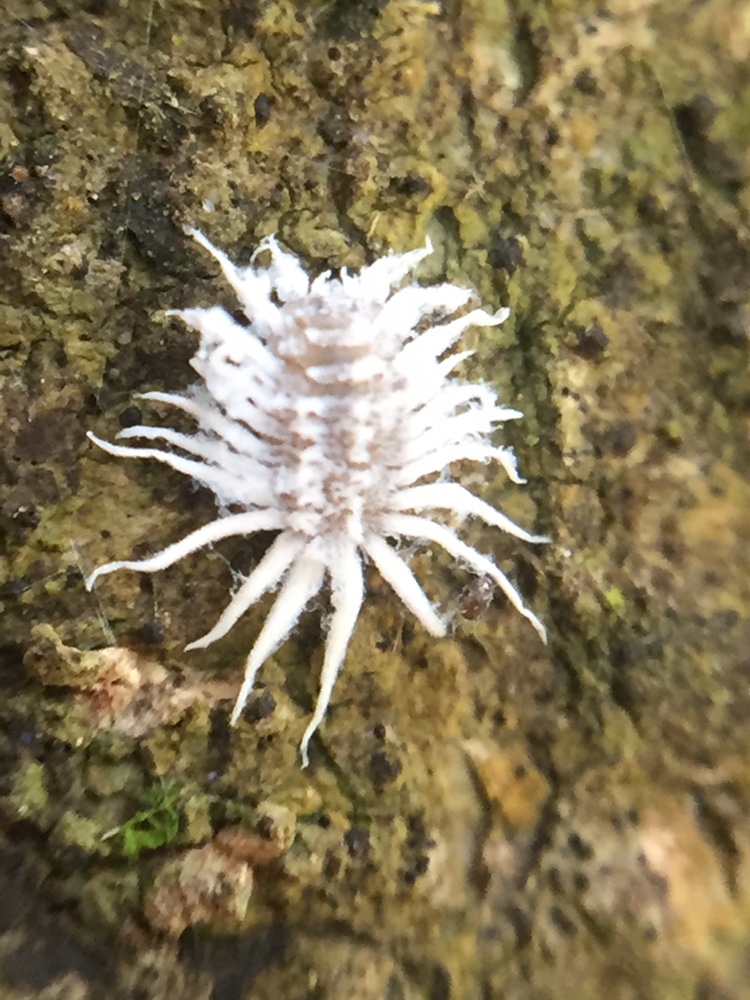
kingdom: Animalia
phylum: Arthropoda
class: Insecta
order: Coleoptera
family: Coccinellidae
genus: Telsimia
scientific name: Telsimia
